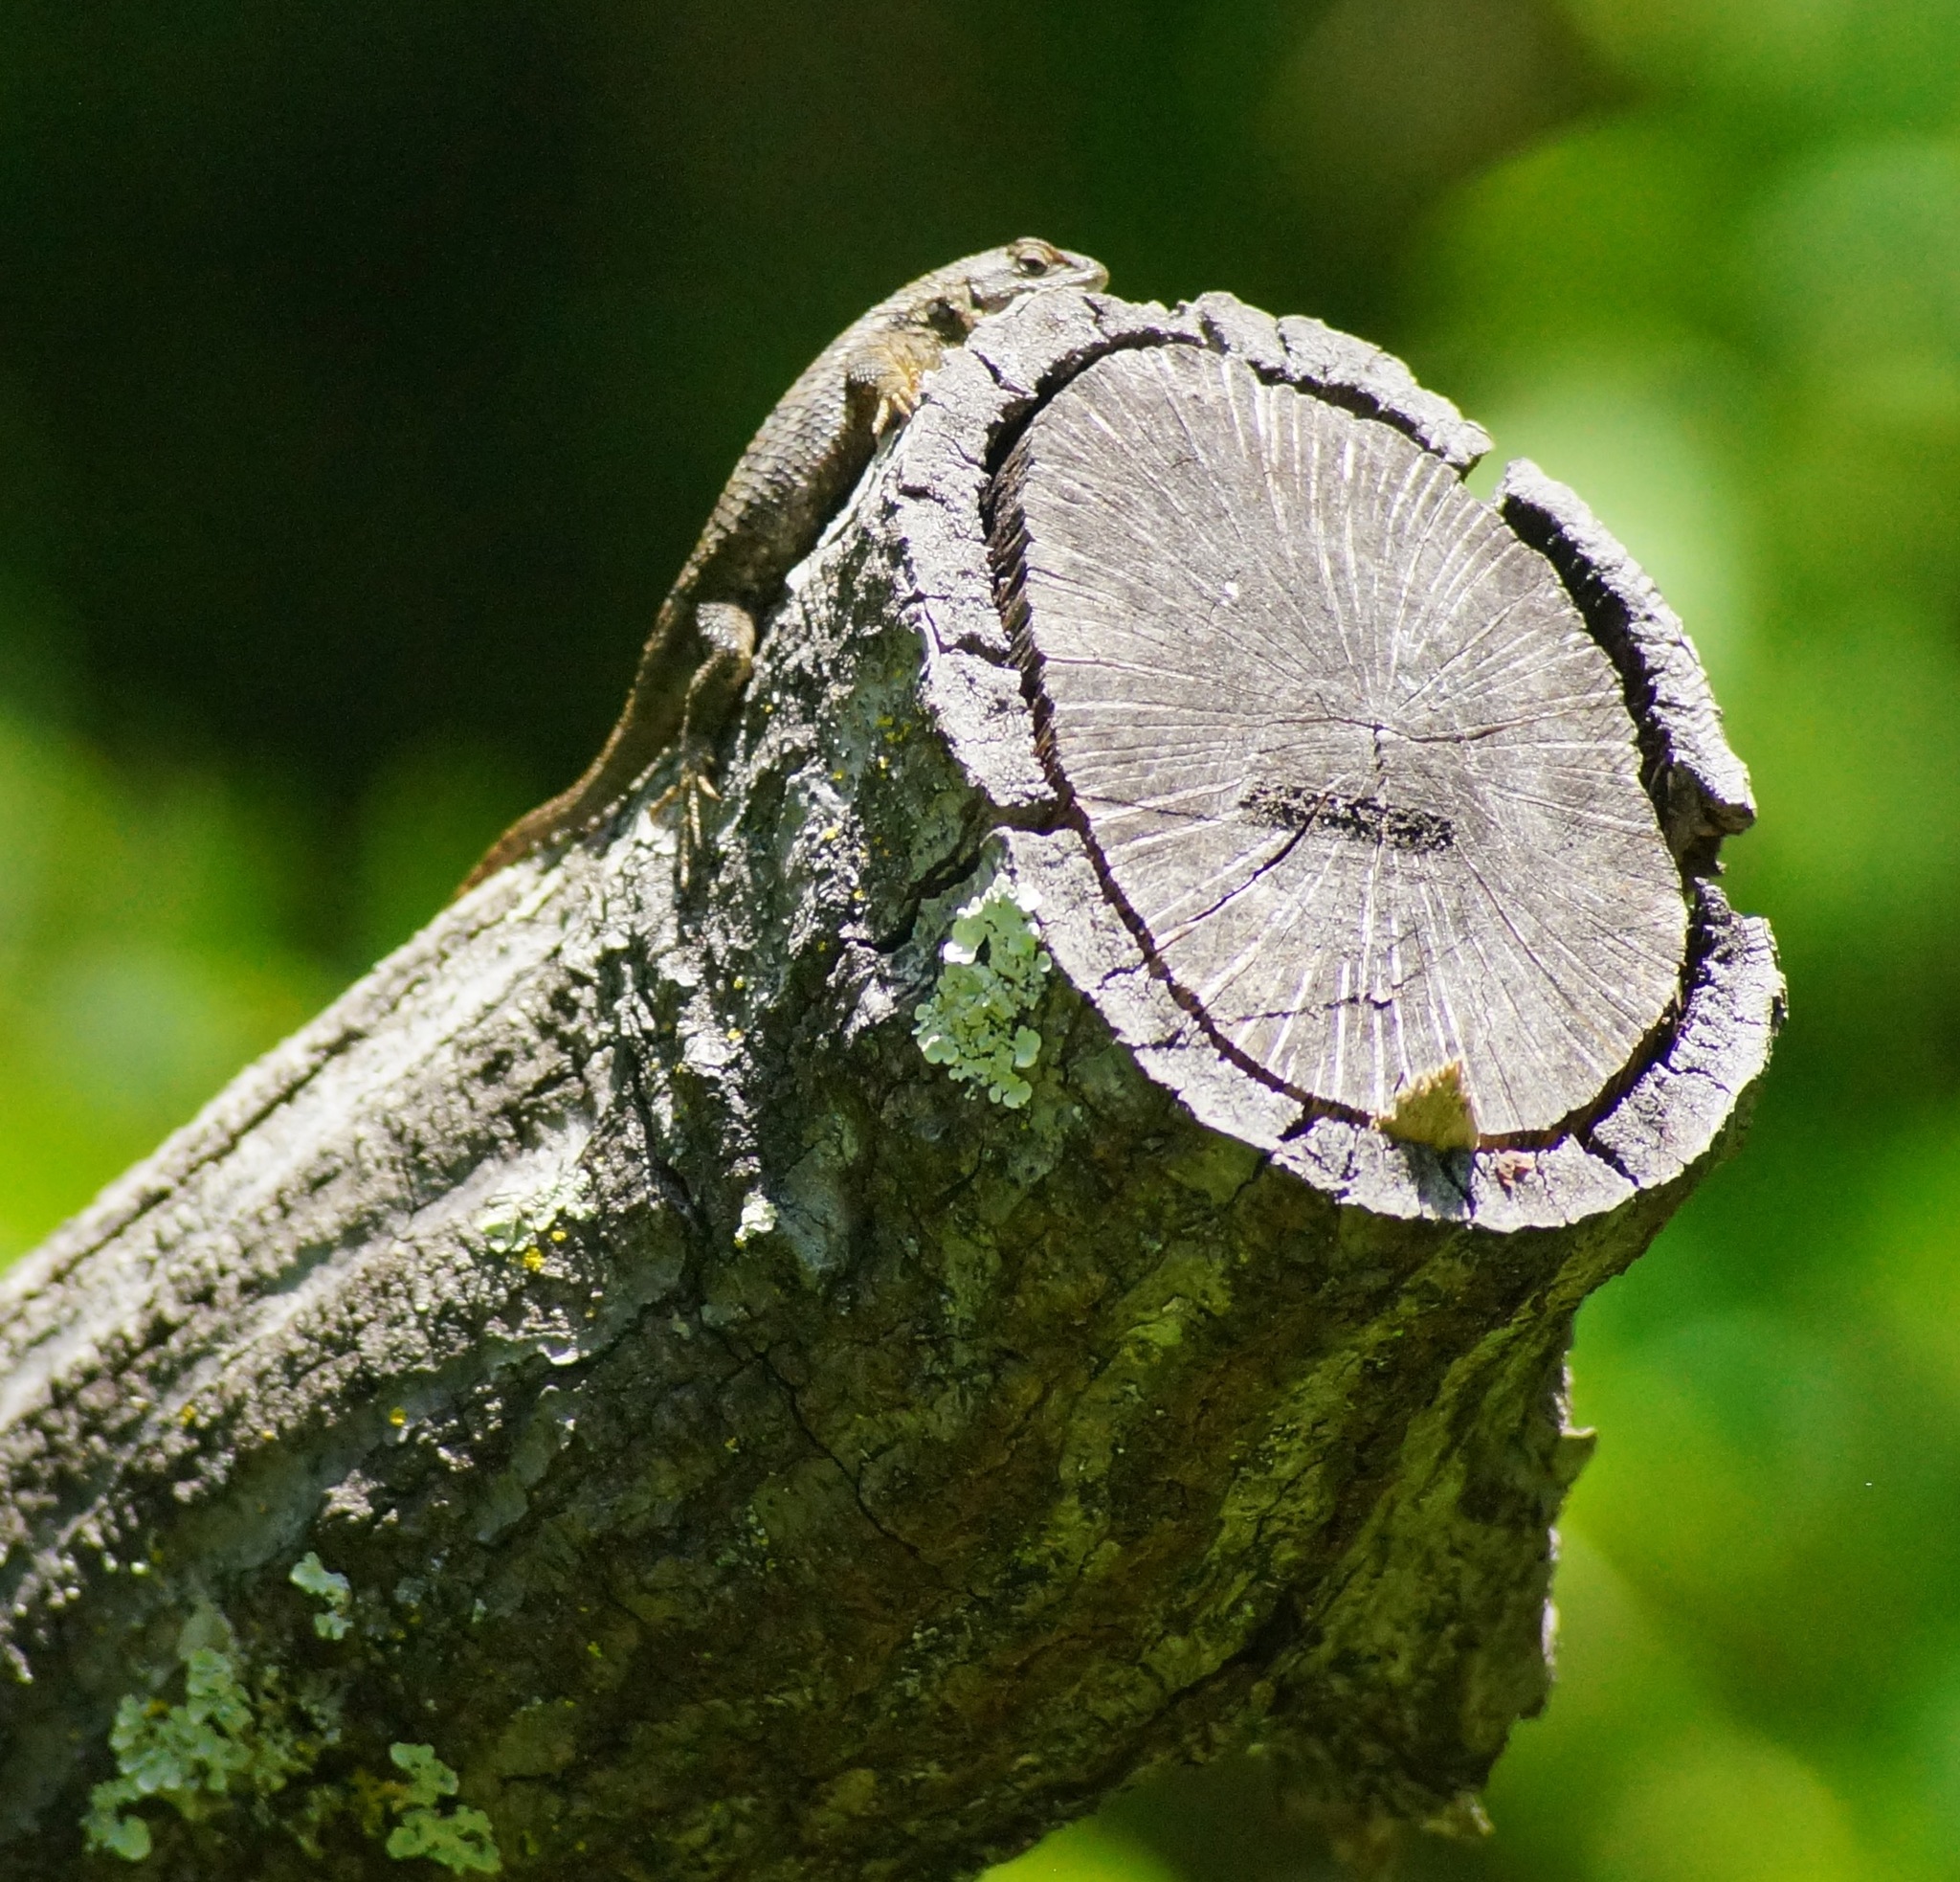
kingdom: Animalia
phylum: Chordata
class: Squamata
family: Phrynosomatidae
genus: Sceloporus
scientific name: Sceloporus occidentalis
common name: Western fence lizard
